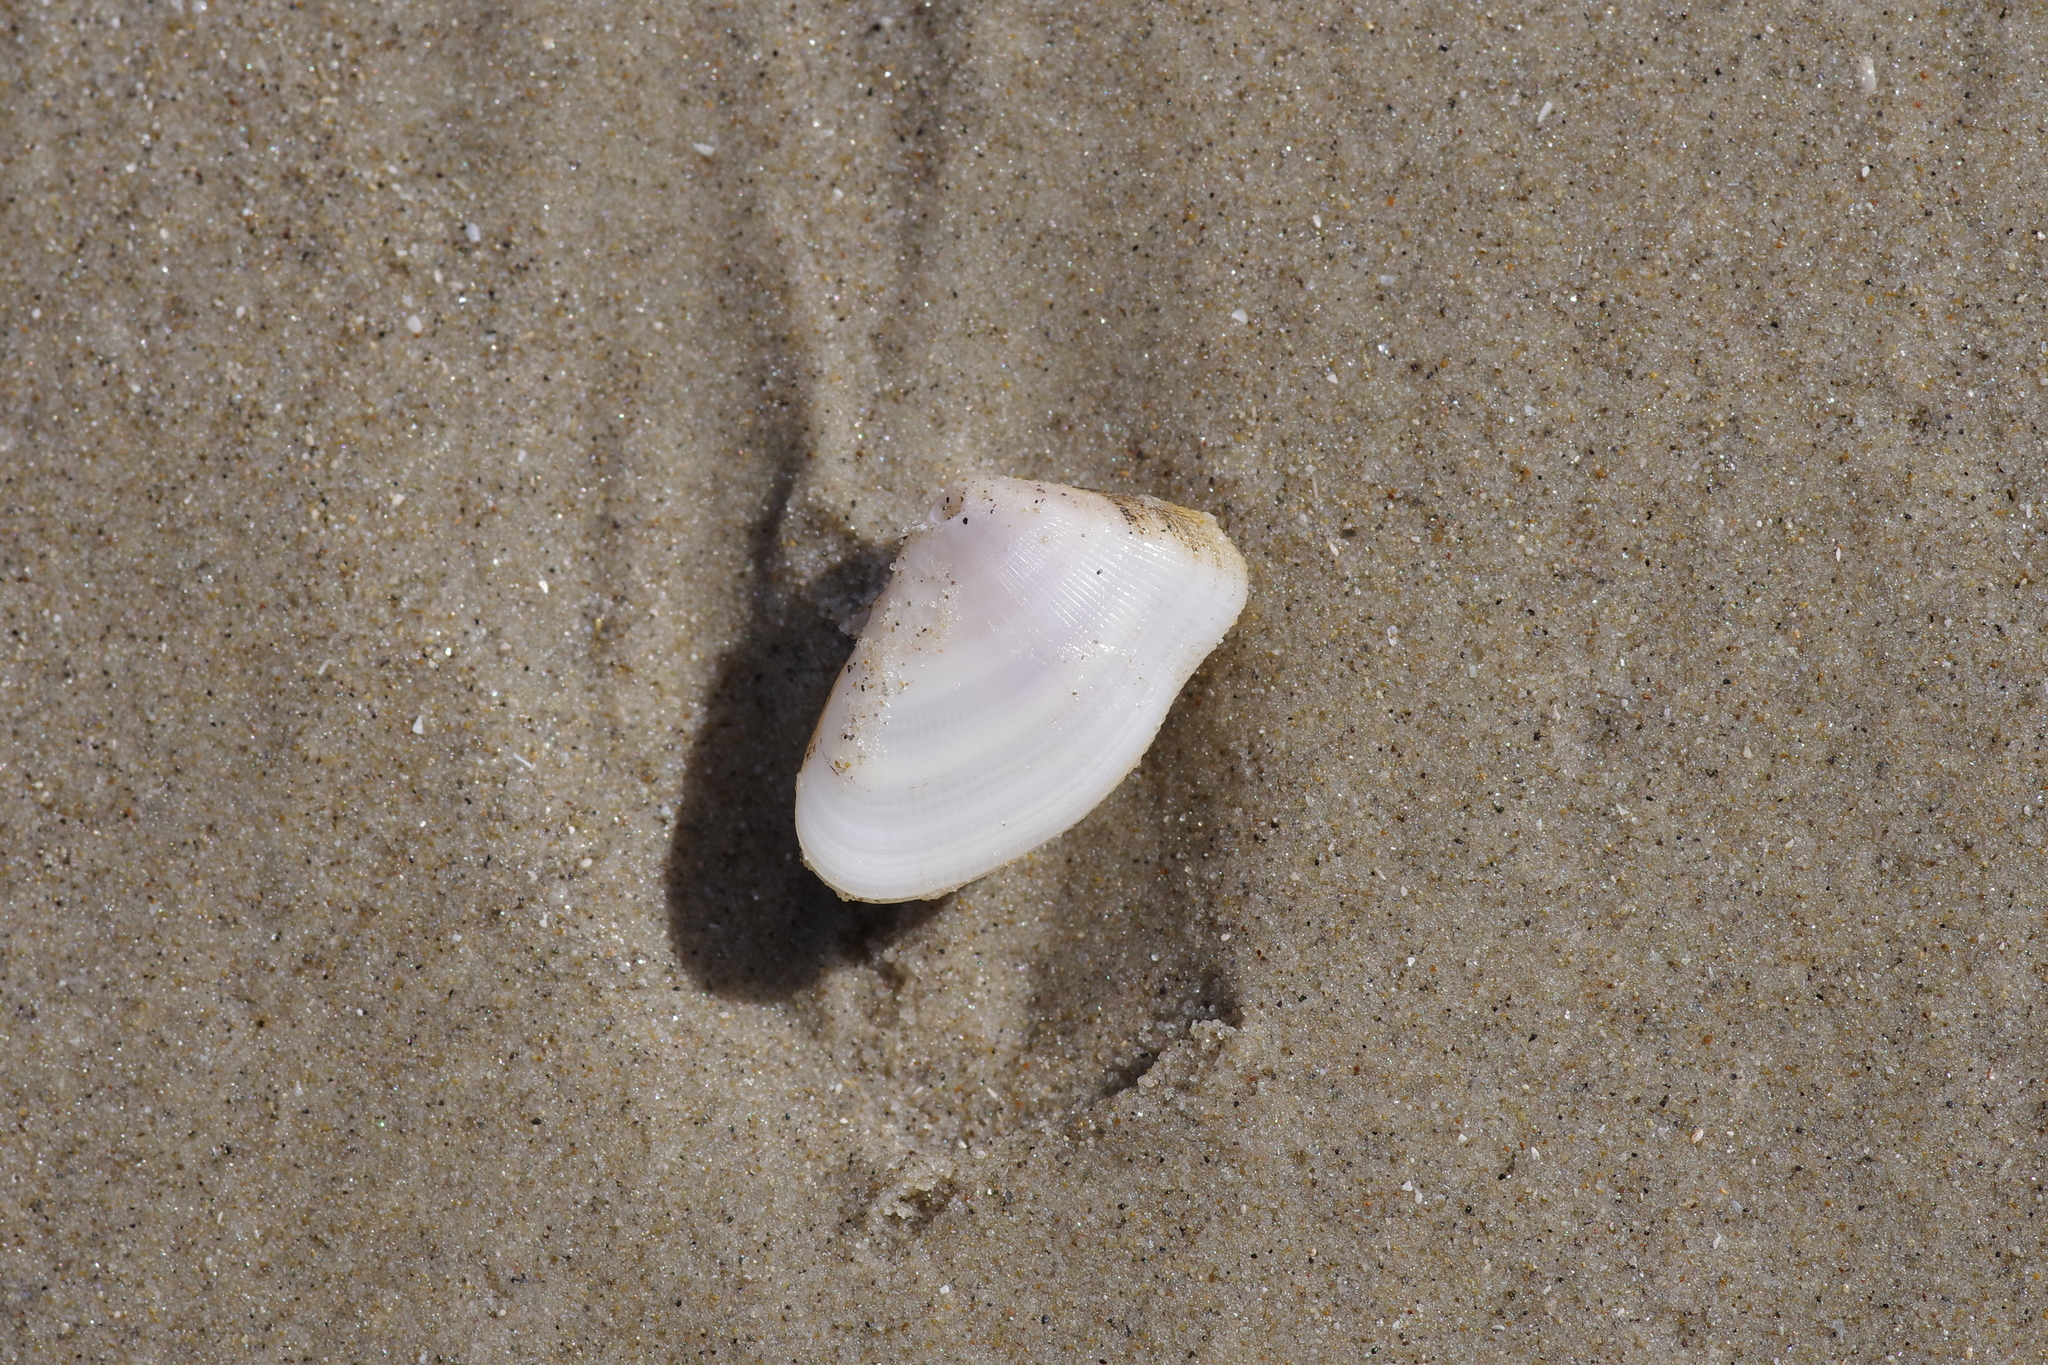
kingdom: Animalia
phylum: Mollusca
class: Bivalvia
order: Cardiida
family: Donacidae
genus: Donax
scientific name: Donax variabilis
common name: Butterfly shell
